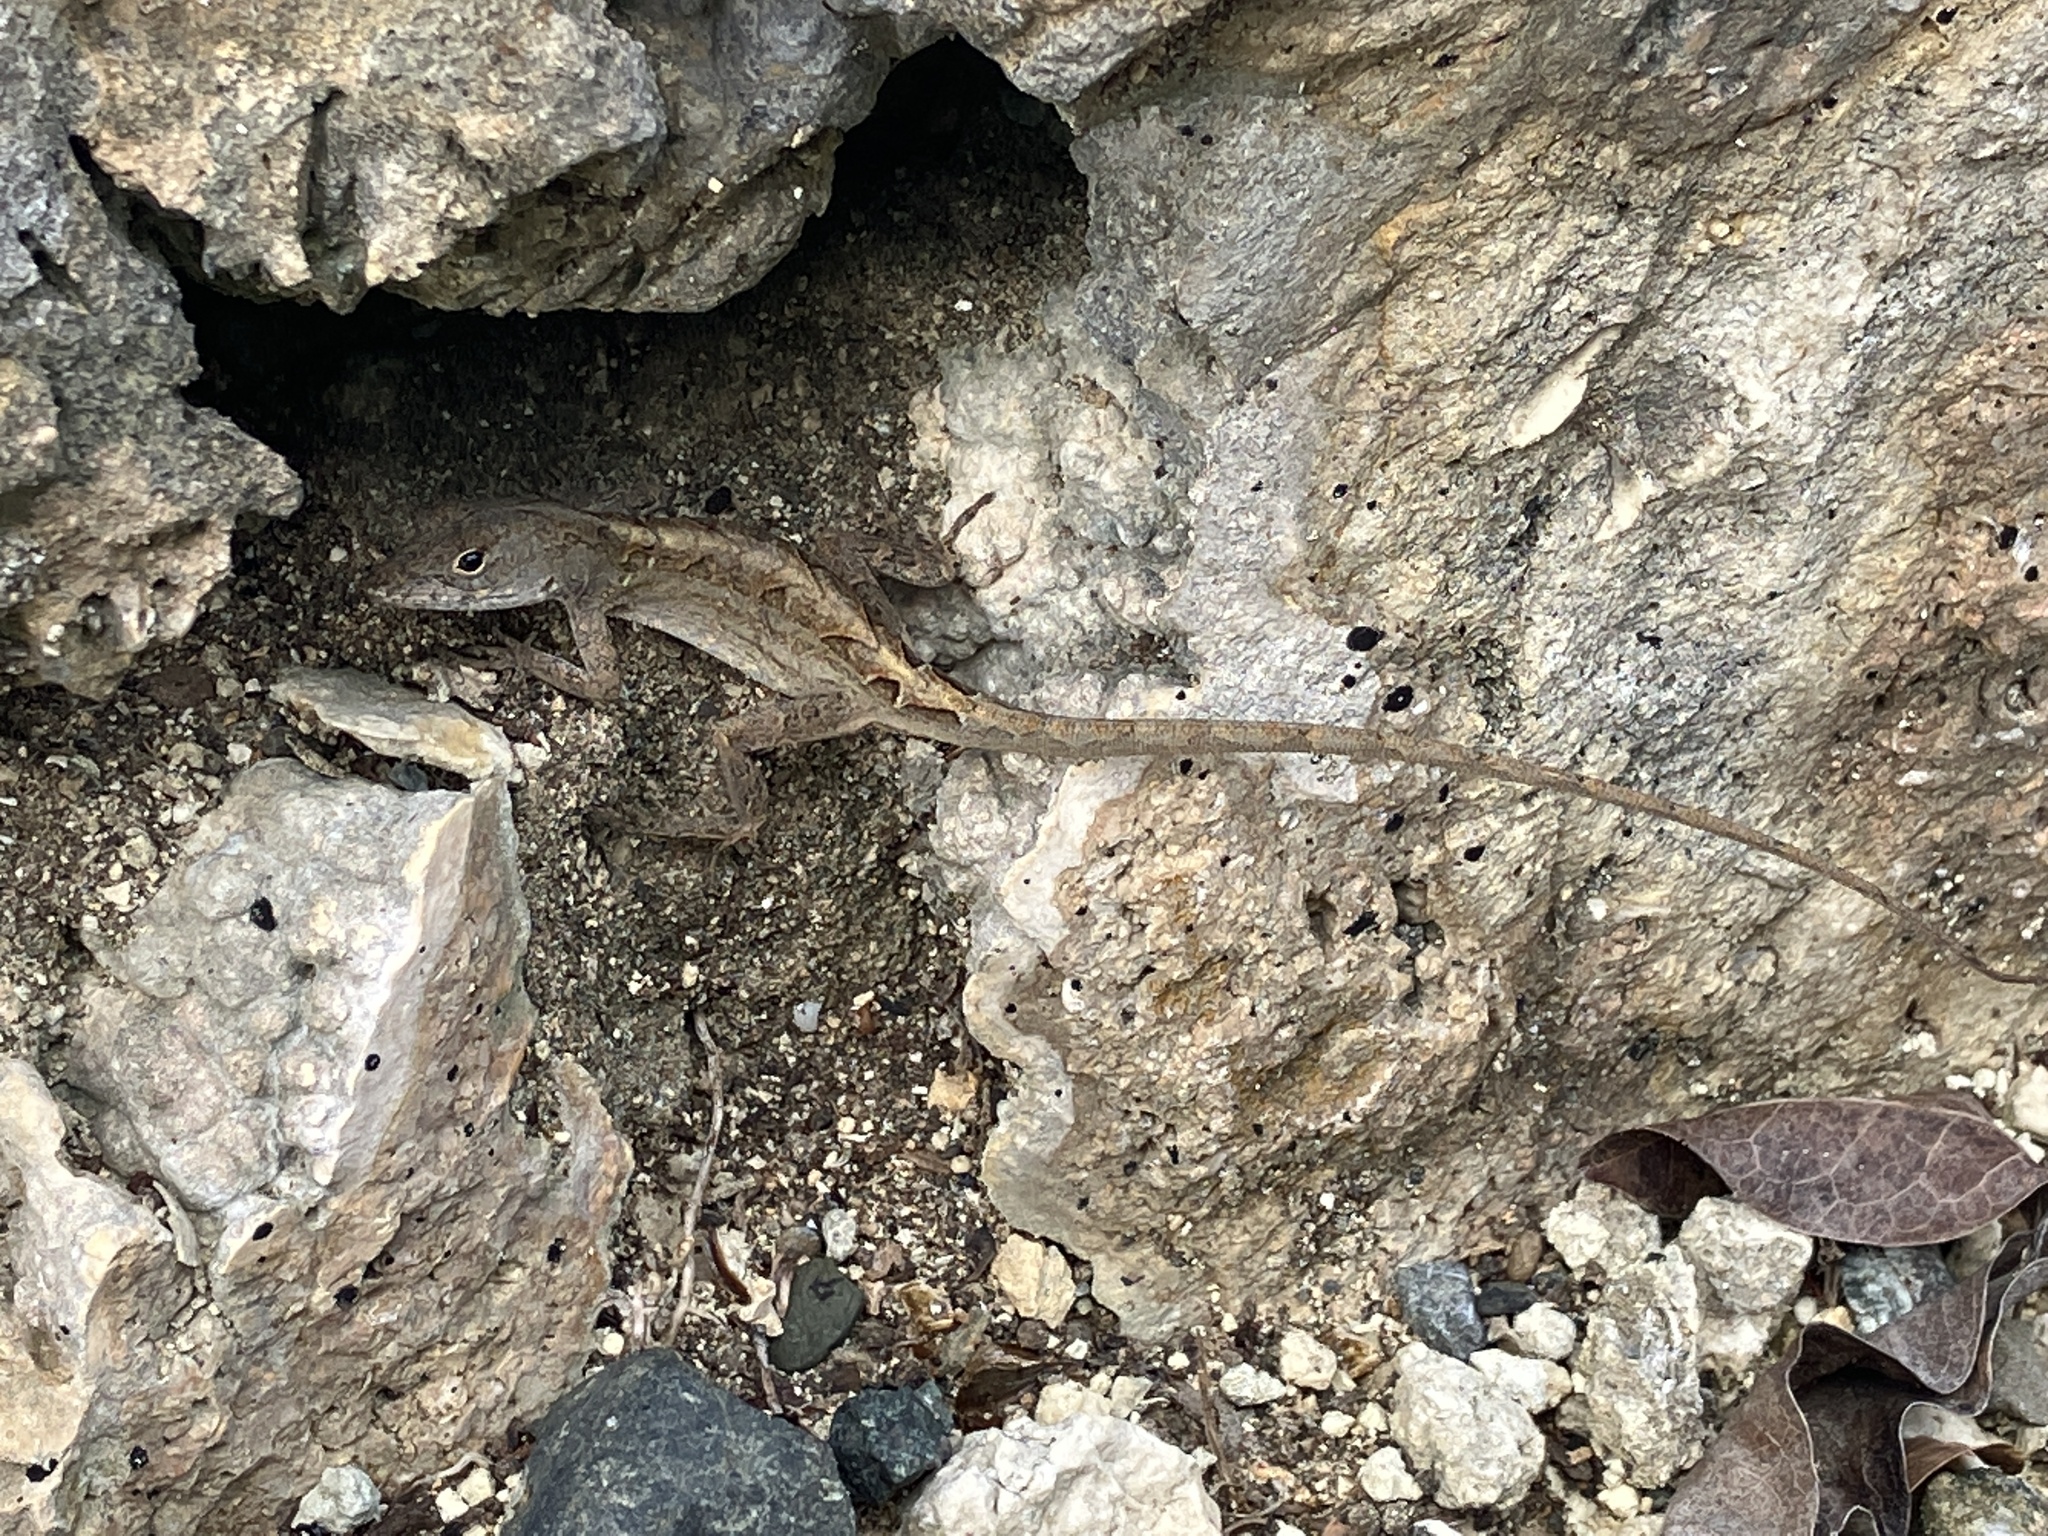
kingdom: Animalia
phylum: Chordata
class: Squamata
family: Dactyloidae
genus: Anolis
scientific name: Anolis sagrei
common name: Brown anole
